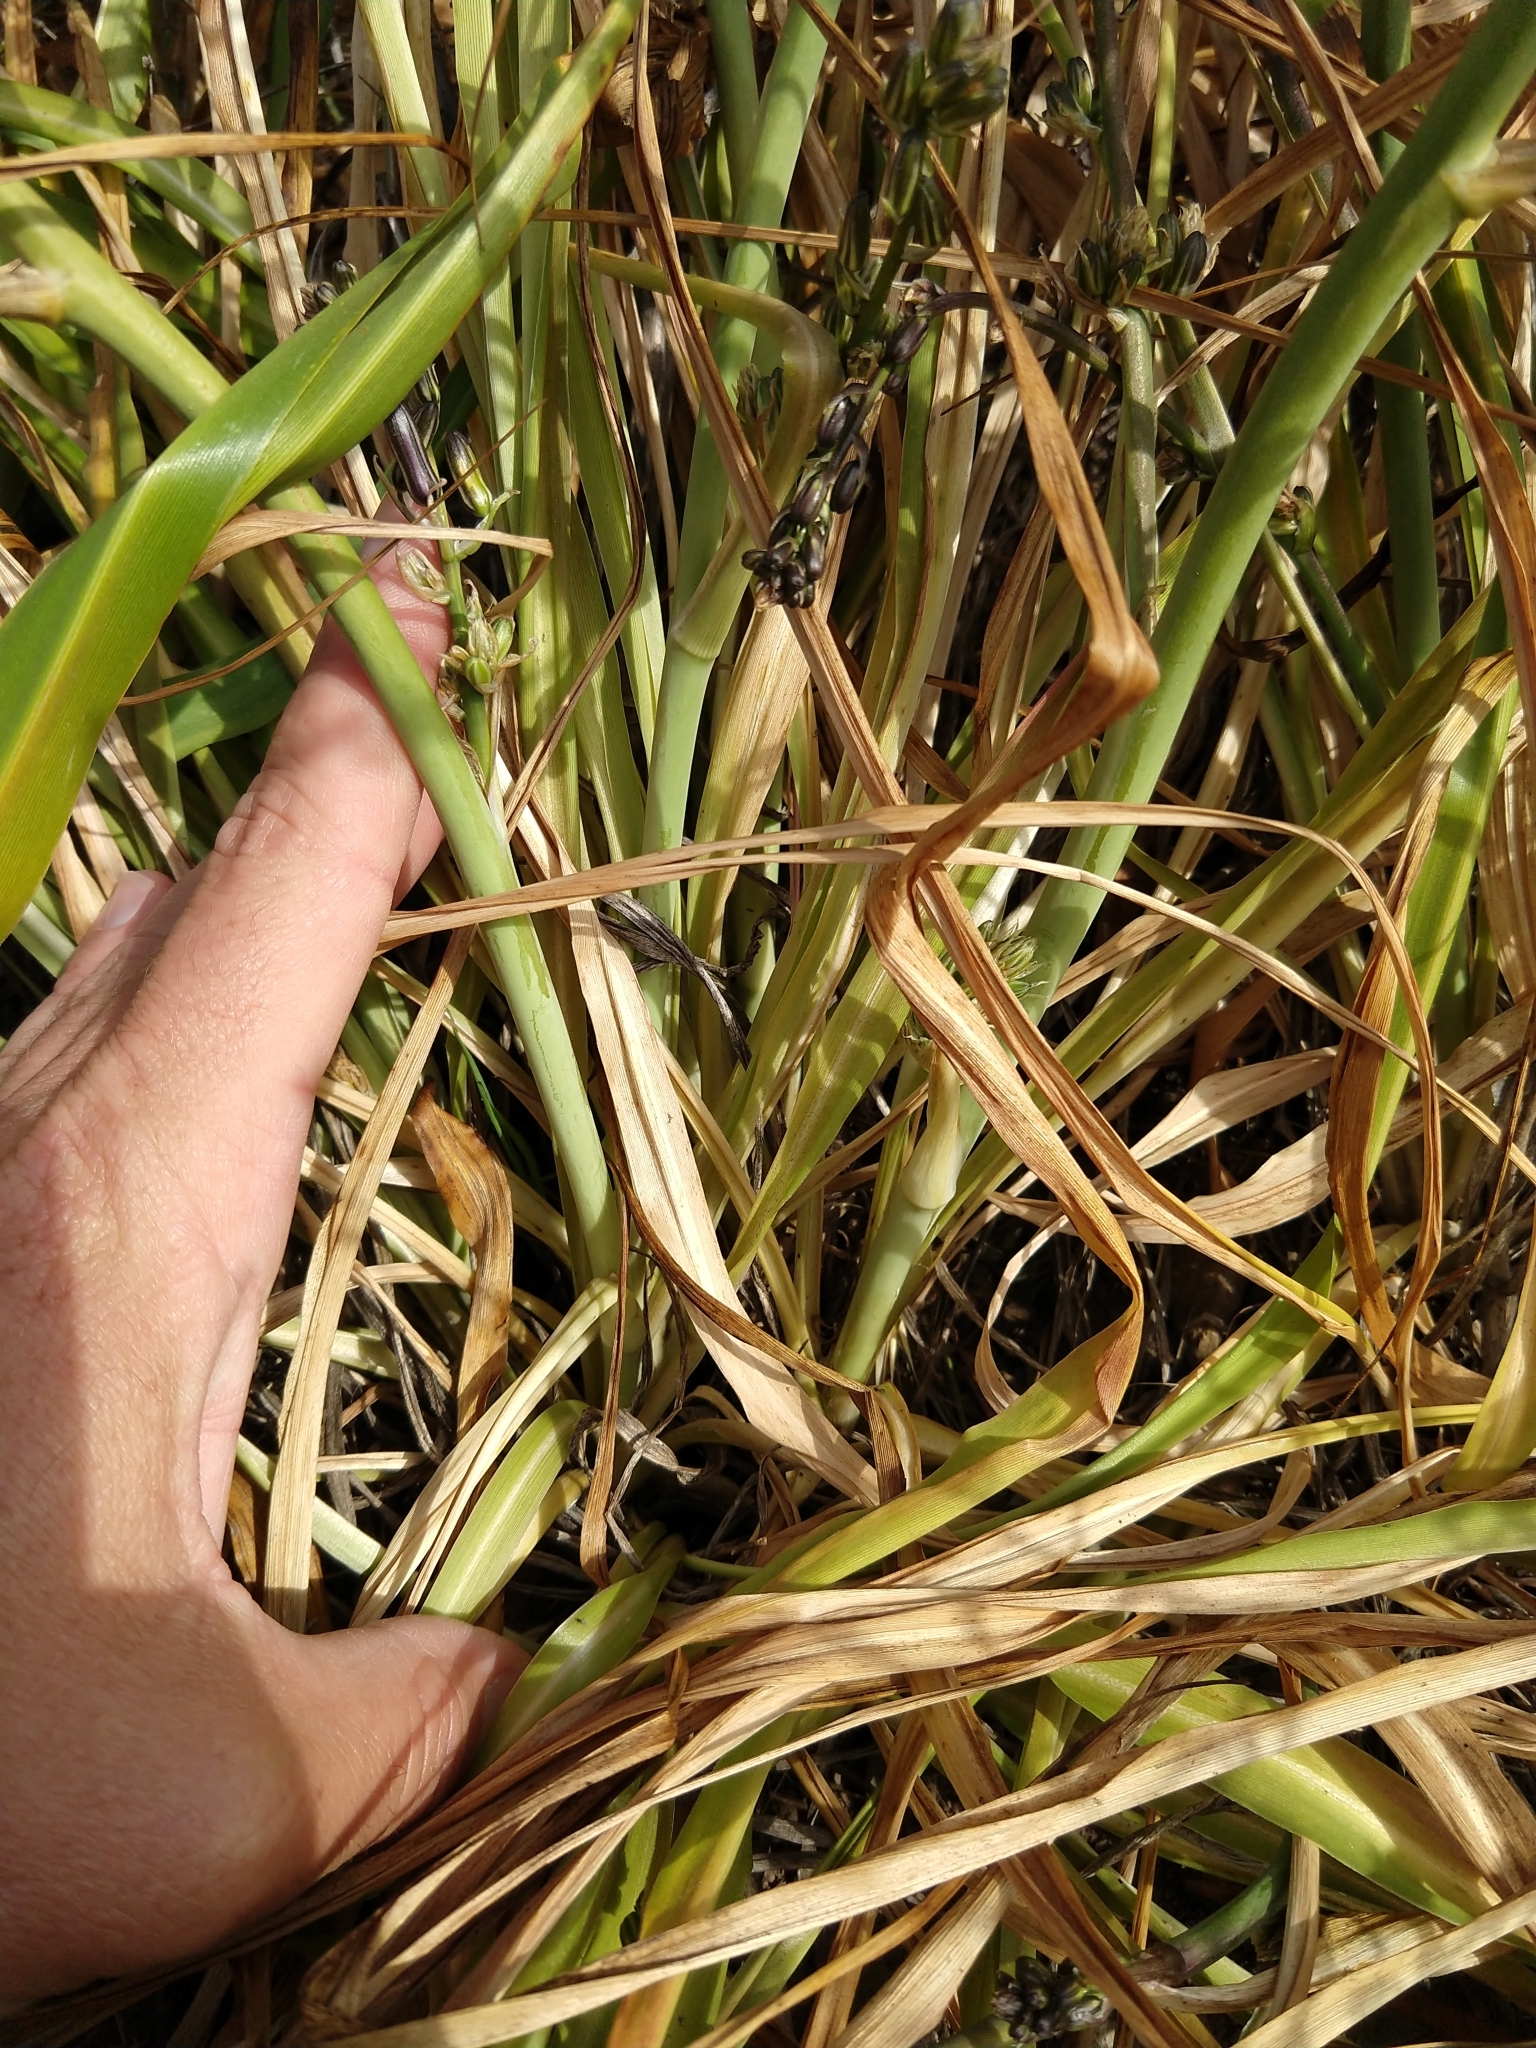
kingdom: Plantae
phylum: Tracheophyta
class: Liliopsida
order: Asparagales
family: Asparagaceae
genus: Chlorogalum
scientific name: Chlorogalum pomeridianum
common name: Amole
